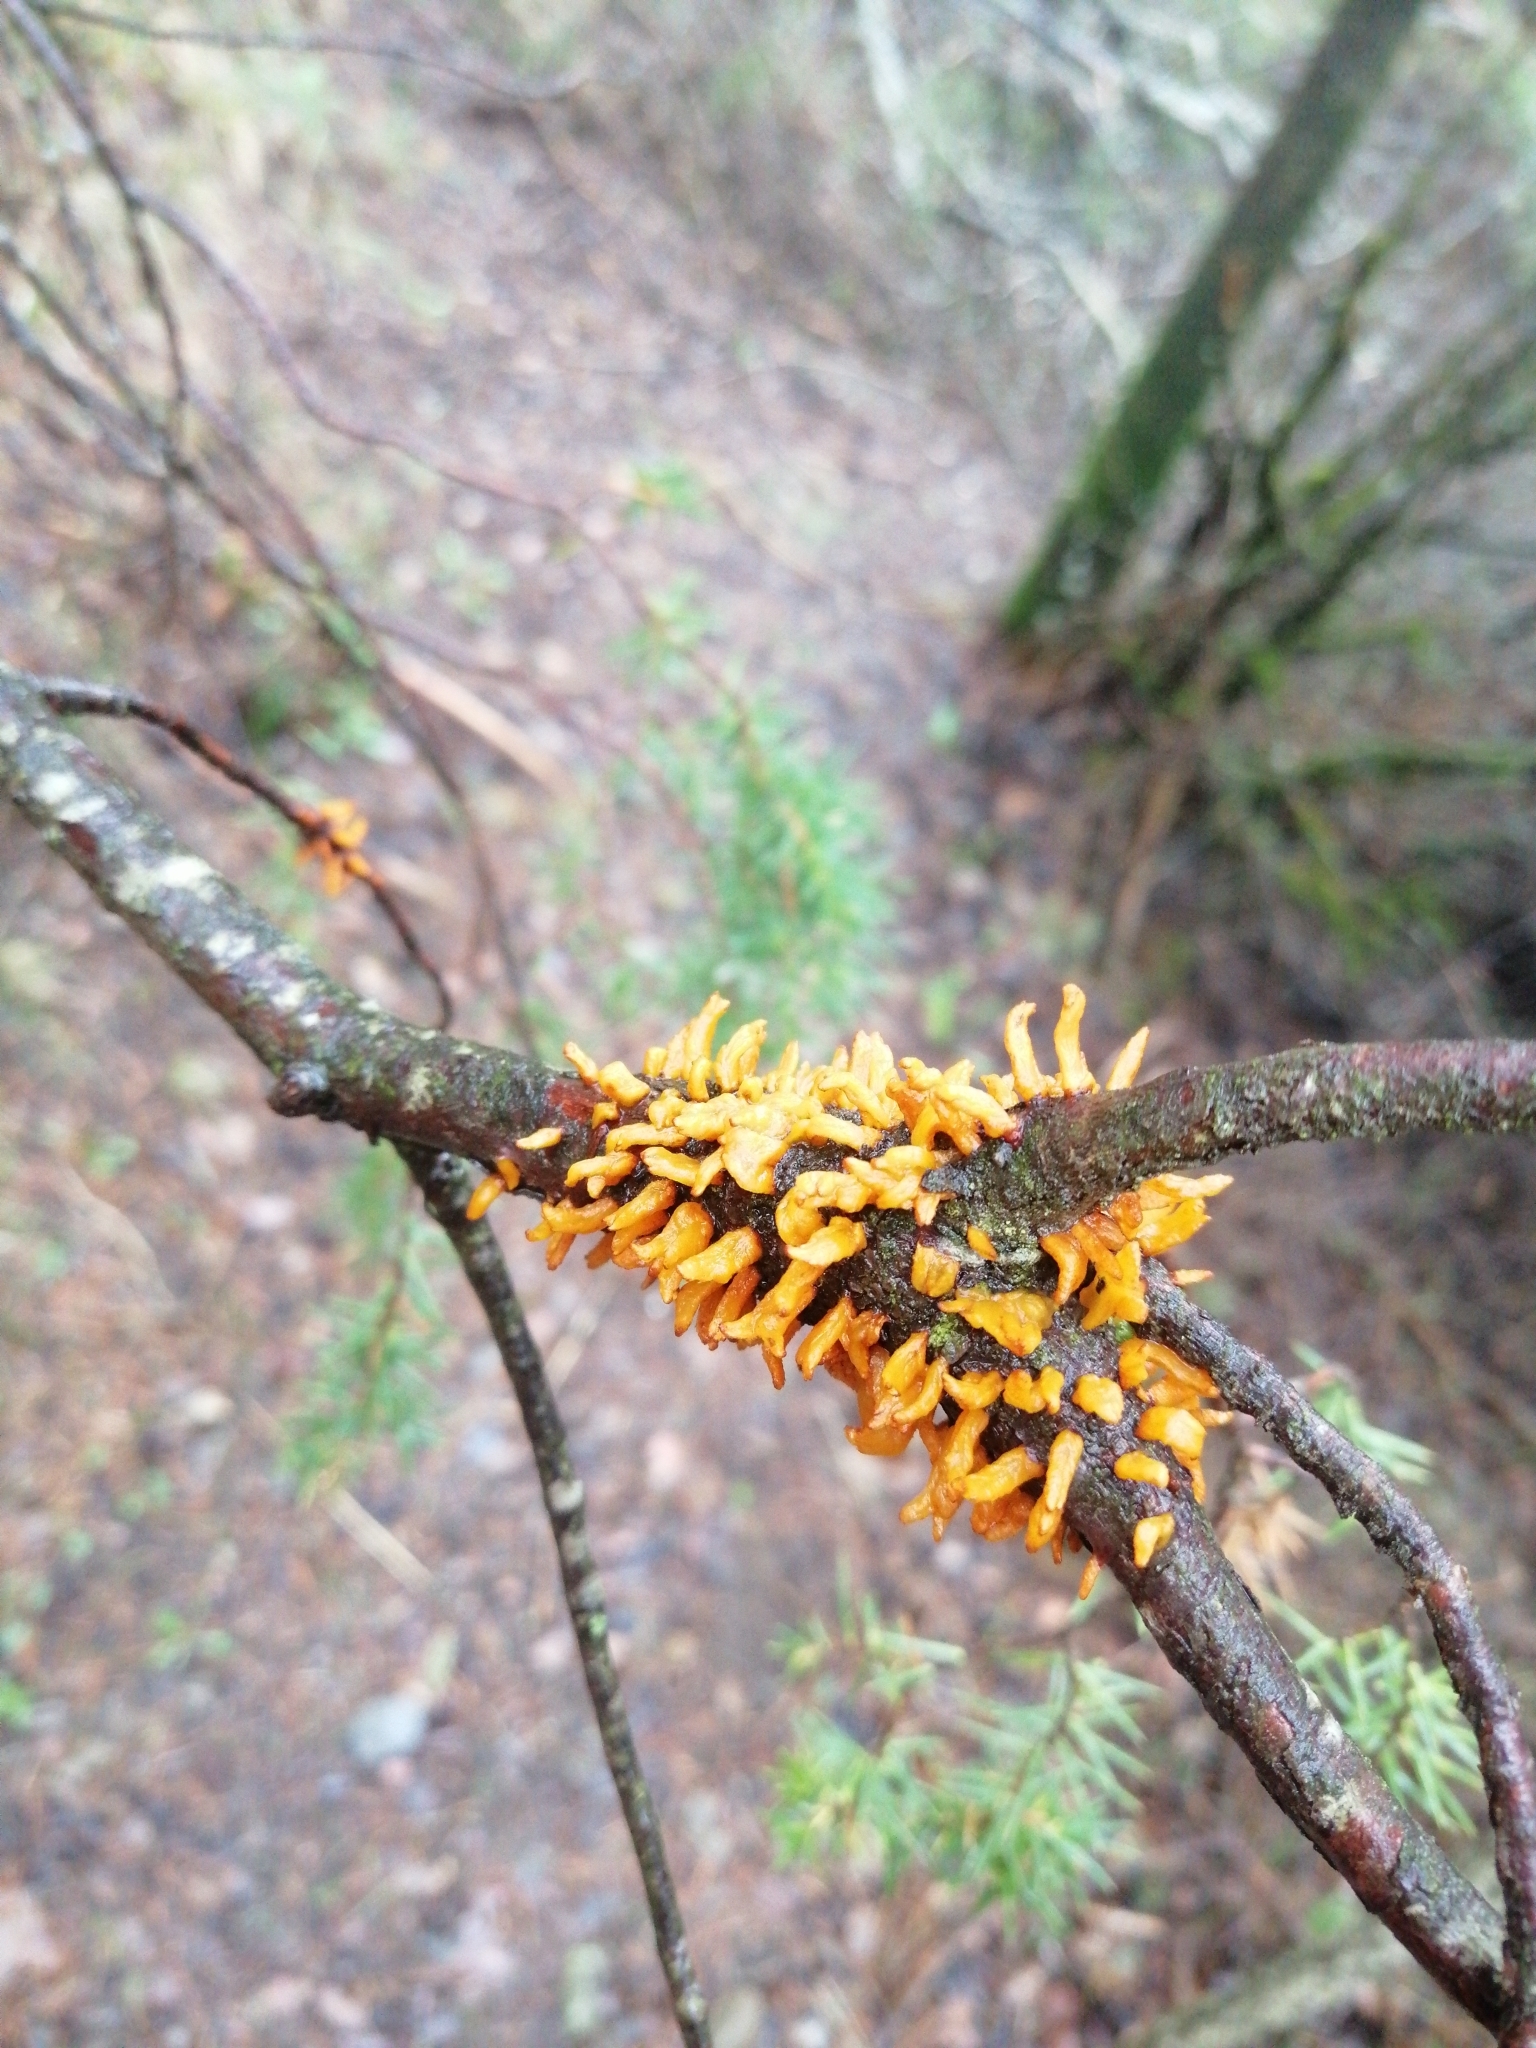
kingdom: Fungi
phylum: Basidiomycota
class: Pucciniomycetes
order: Pucciniales
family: Gymnosporangiaceae
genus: Gymnosporangium
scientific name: Gymnosporangium clavariiforme
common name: Tongues of fire
